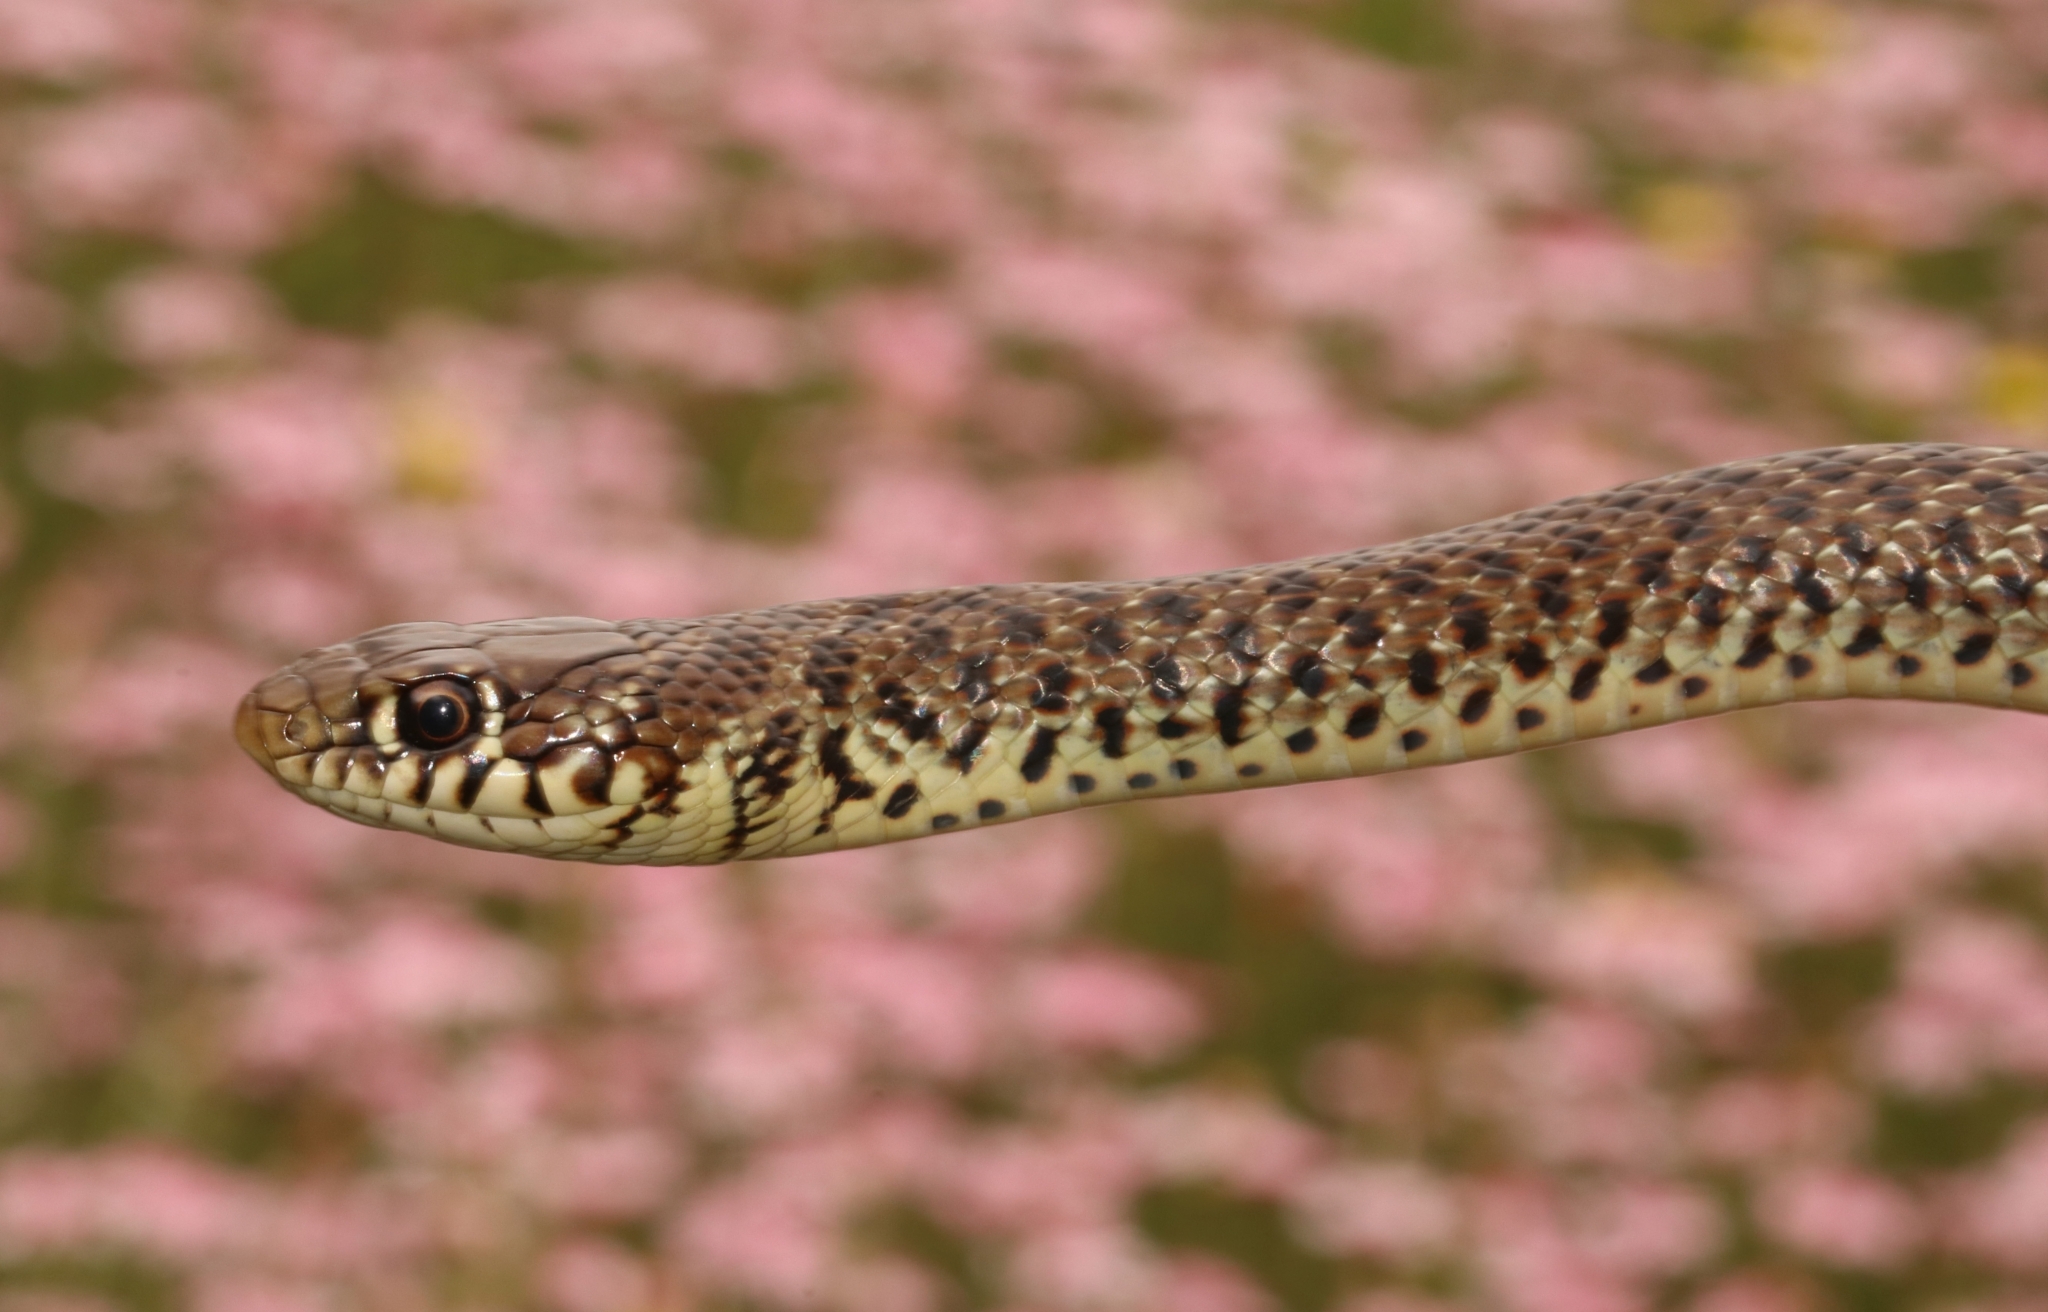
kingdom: Animalia
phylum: Chordata
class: Squamata
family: Colubridae
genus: Hierophis
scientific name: Hierophis gemonensis
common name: Balkan whip snake
